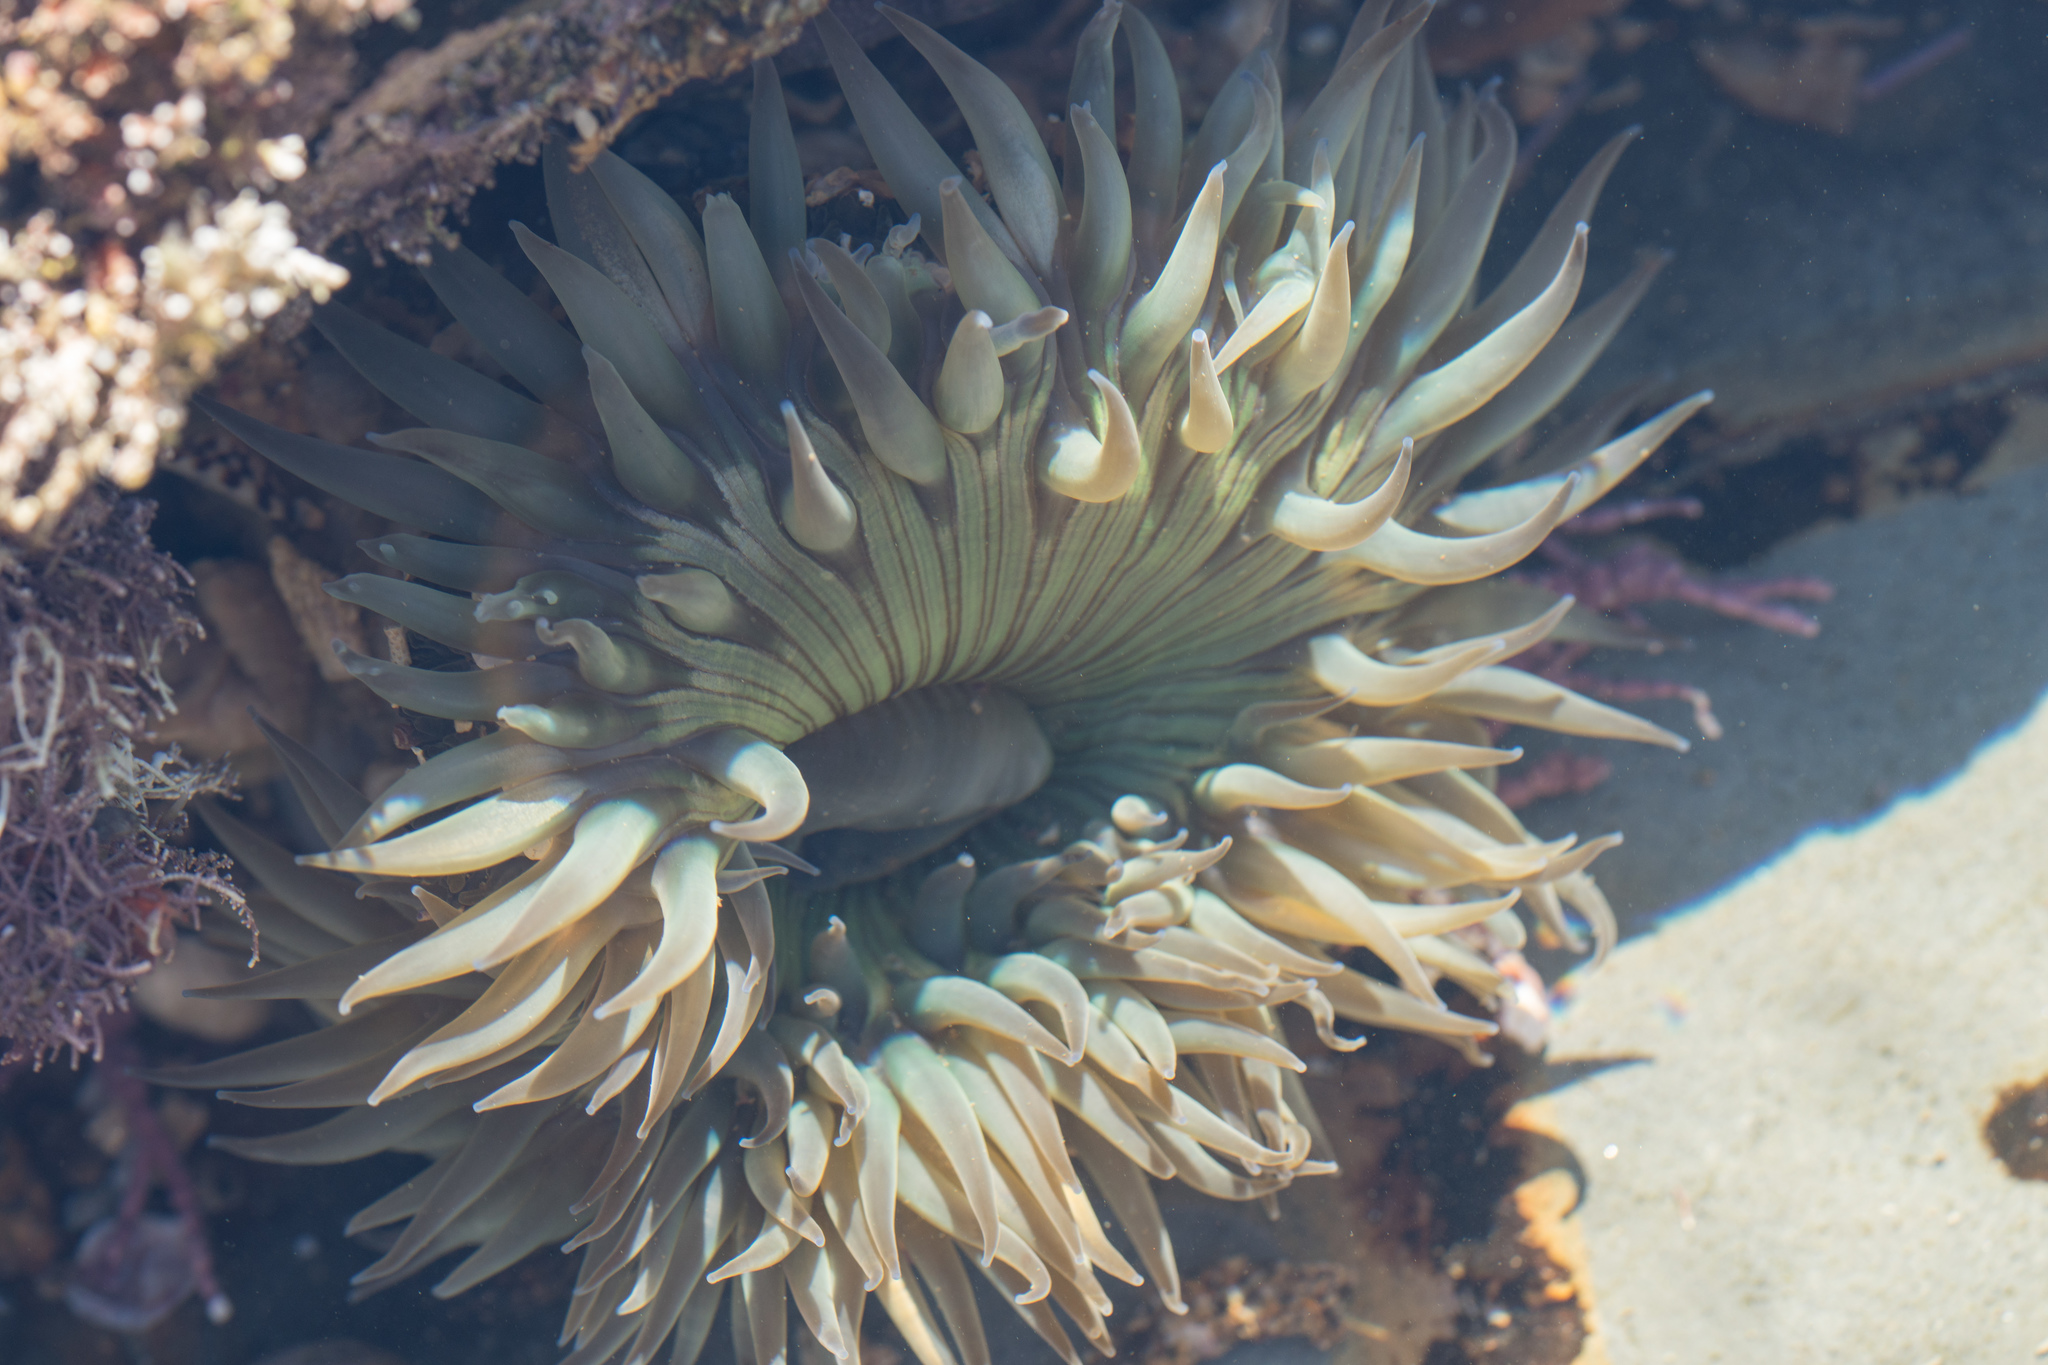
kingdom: Animalia
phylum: Cnidaria
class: Anthozoa
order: Actiniaria
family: Actiniidae
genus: Anthopleura
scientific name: Anthopleura sola
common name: Sun anemone
